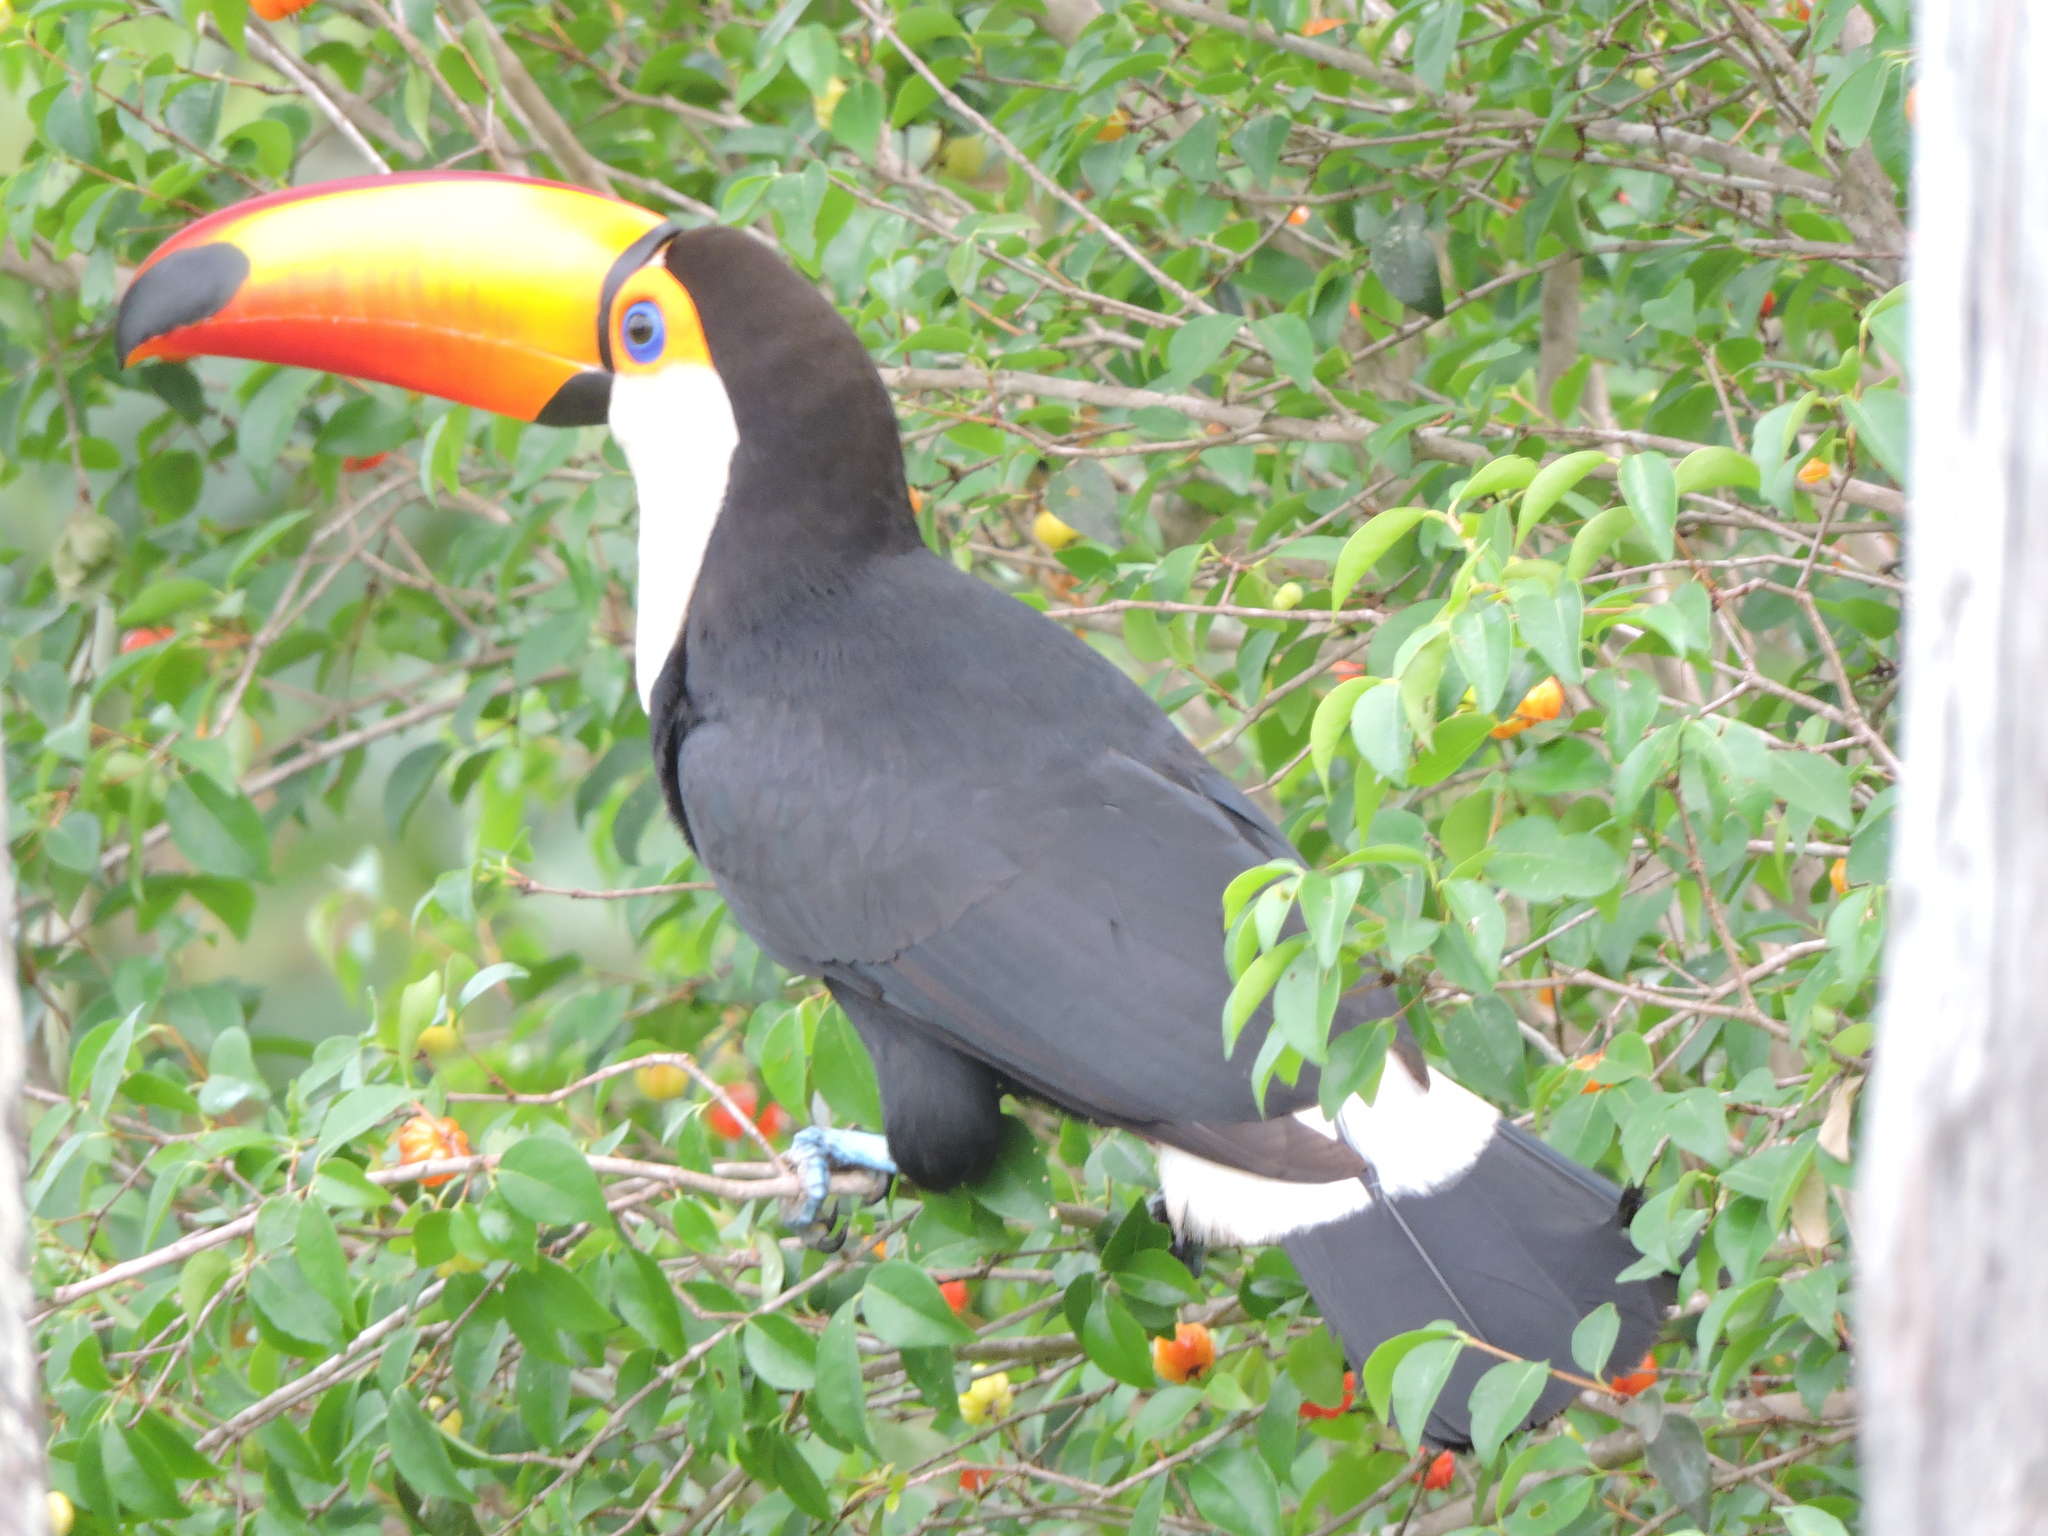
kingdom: Animalia
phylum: Chordata
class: Aves
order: Piciformes
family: Ramphastidae
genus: Ramphastos
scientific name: Ramphastos toco
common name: Toco toucan
